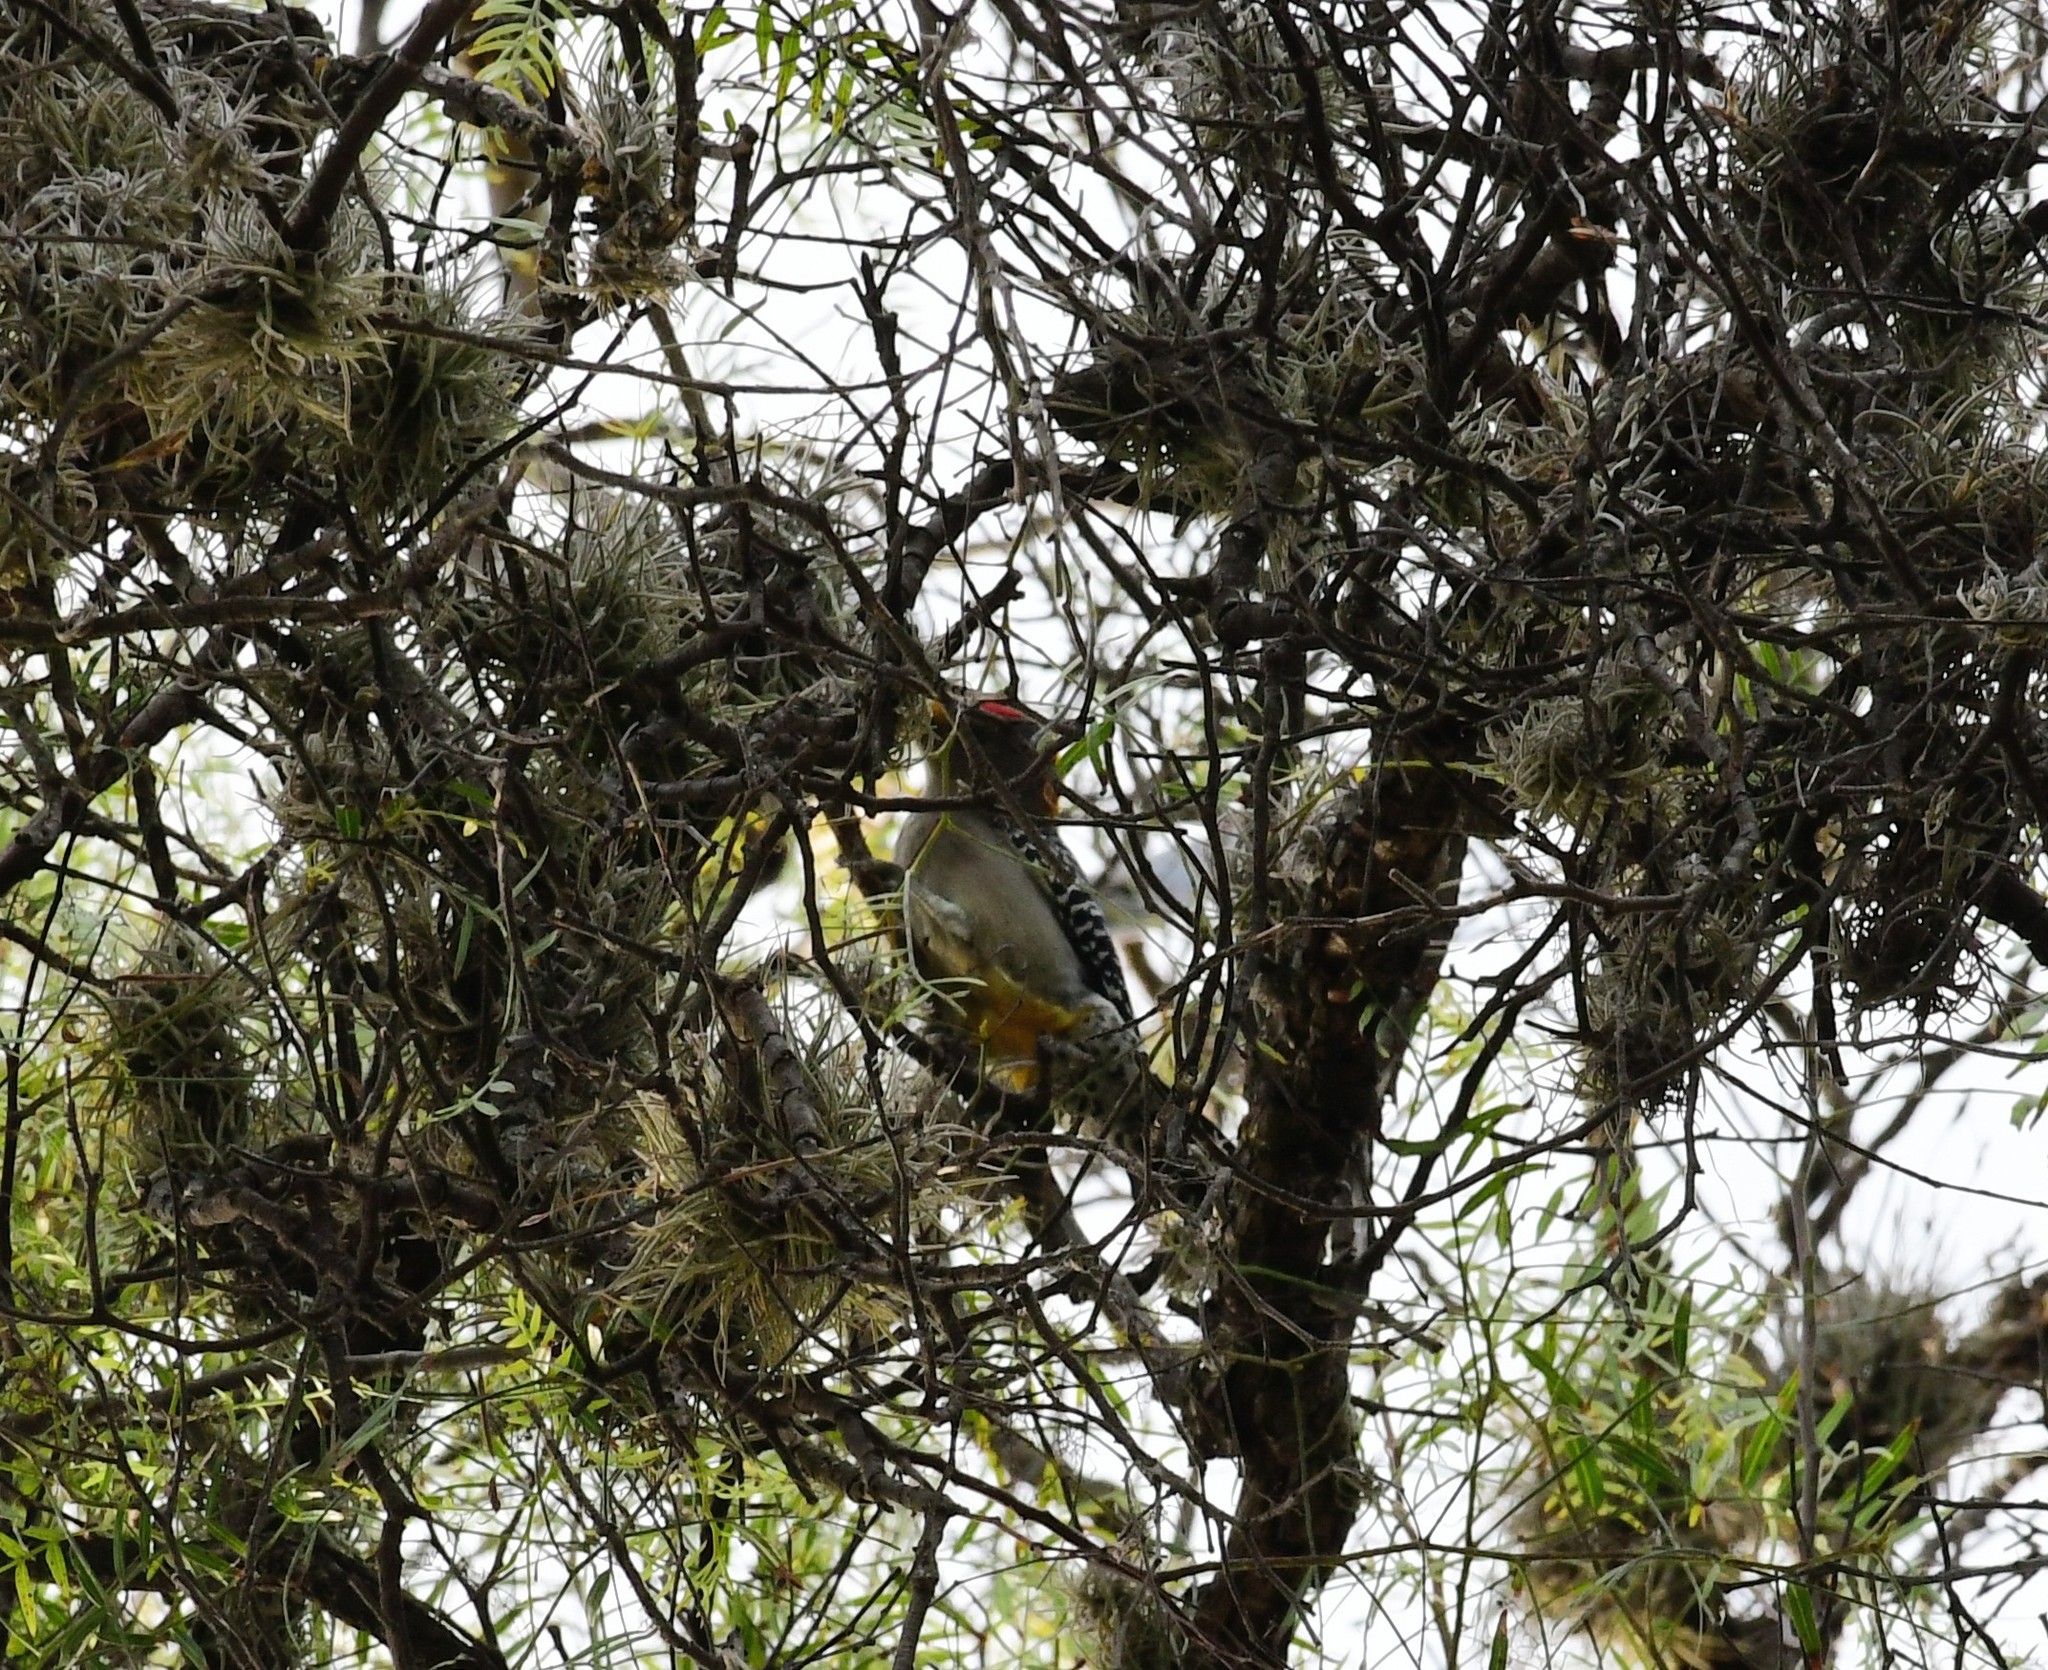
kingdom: Animalia
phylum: Chordata
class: Aves
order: Piciformes
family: Picidae
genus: Melanerpes
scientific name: Melanerpes aurifrons
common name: Golden-fronted woodpecker
